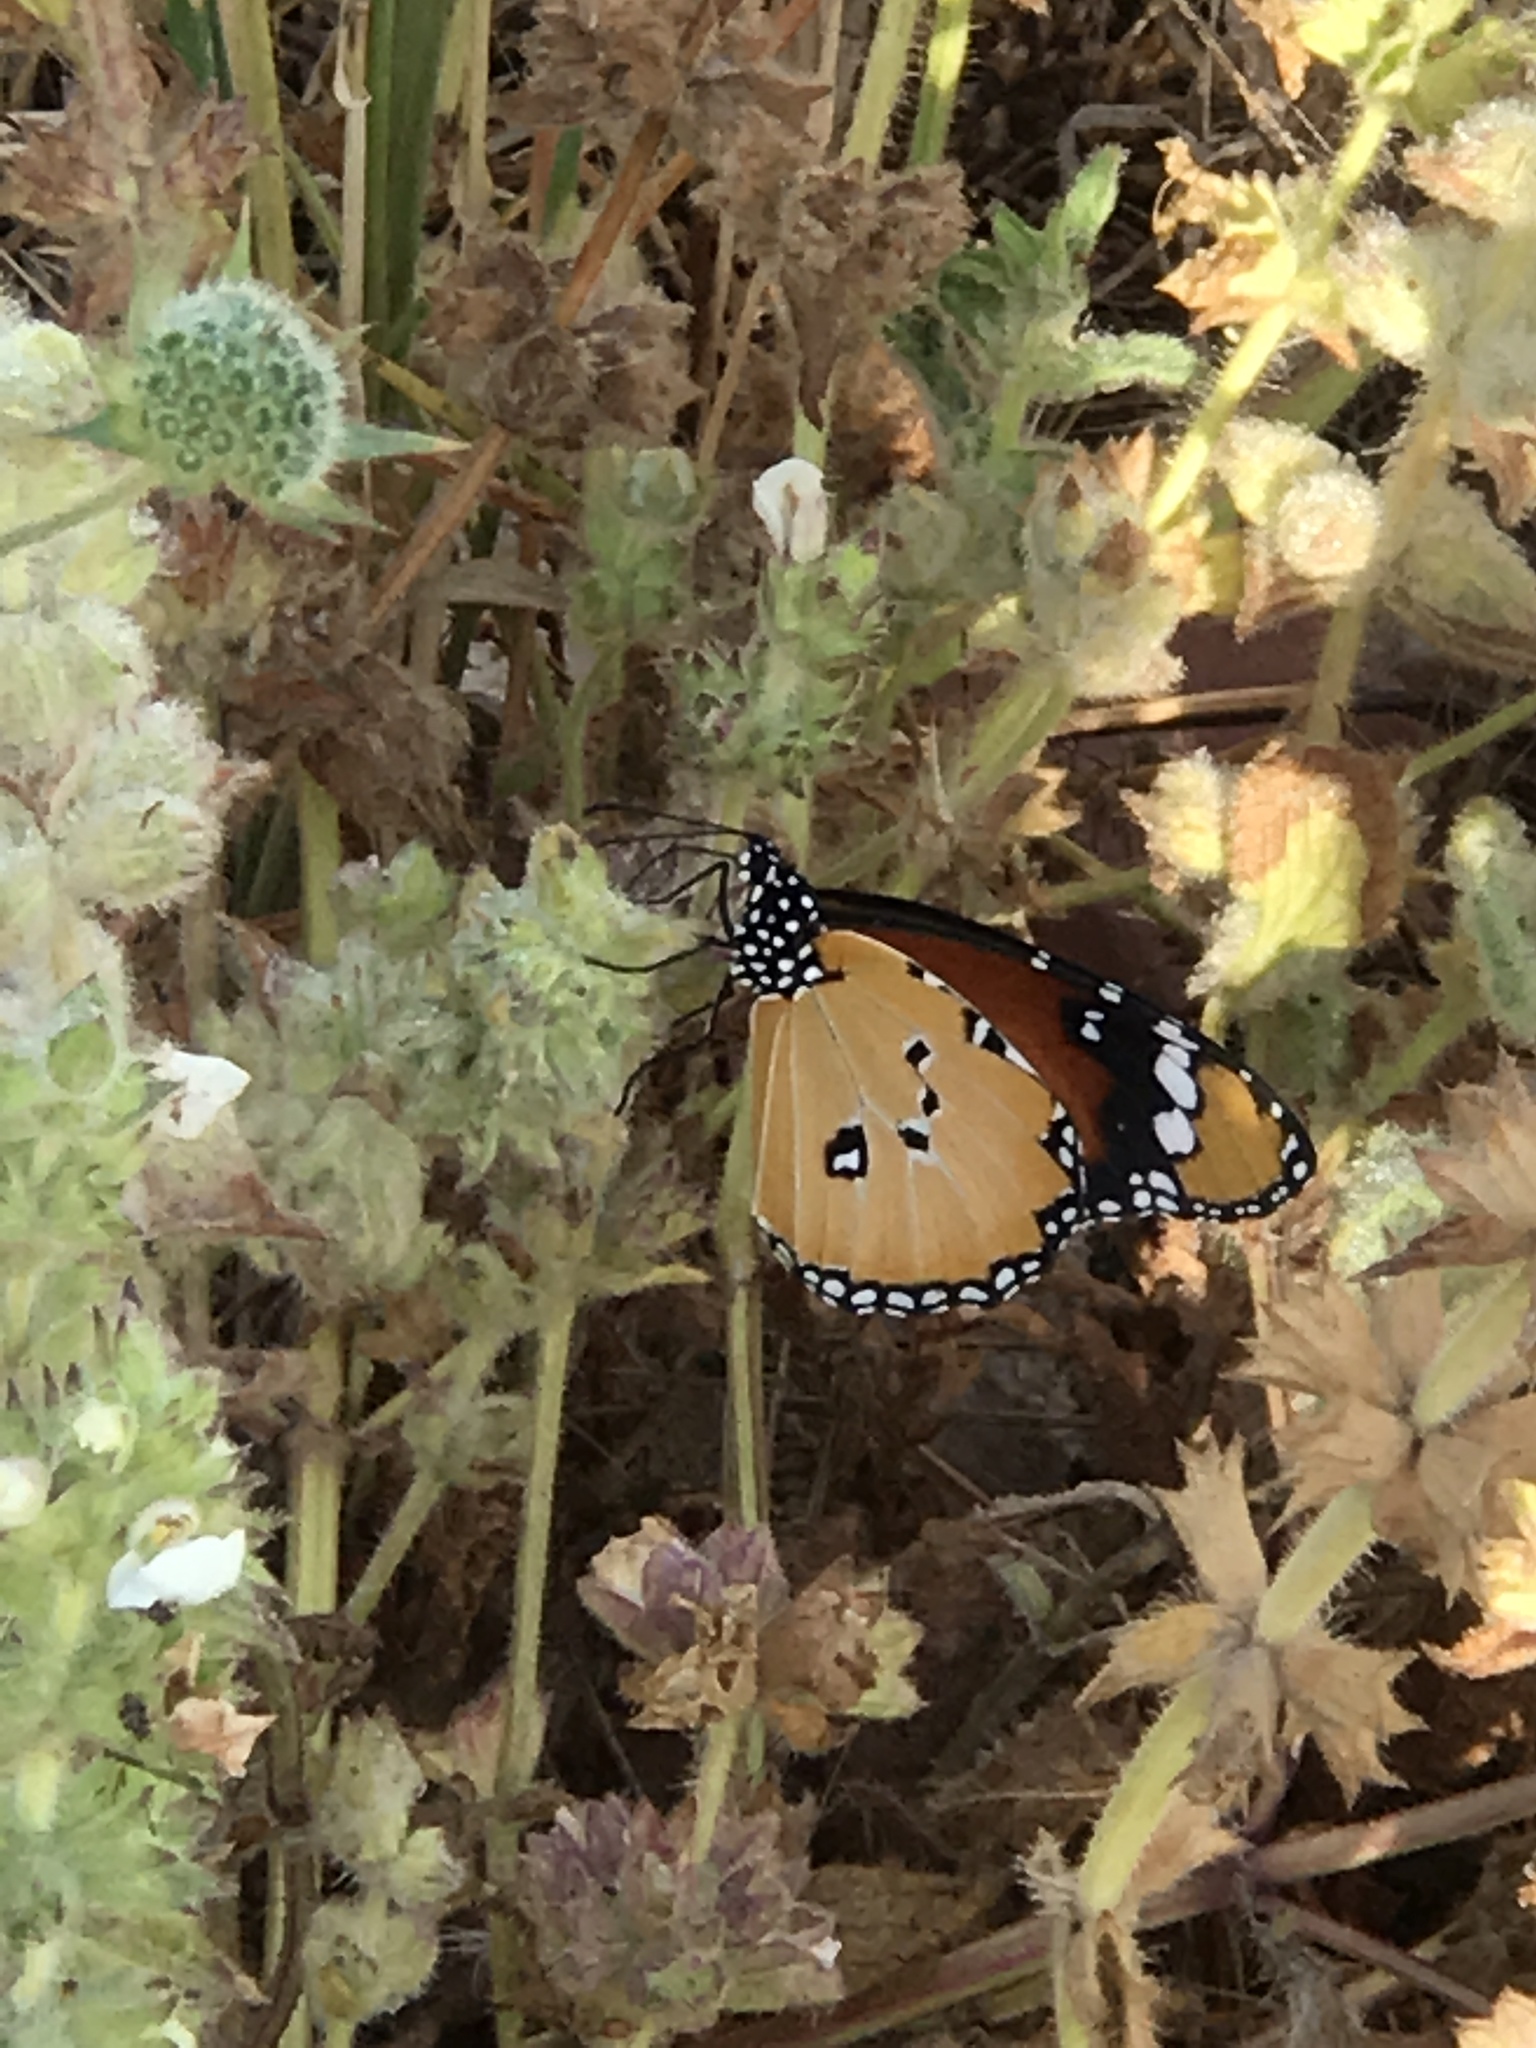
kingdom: Animalia
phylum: Arthropoda
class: Insecta
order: Lepidoptera
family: Nymphalidae
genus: Danaus
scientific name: Danaus chrysippus
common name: Plain tiger
